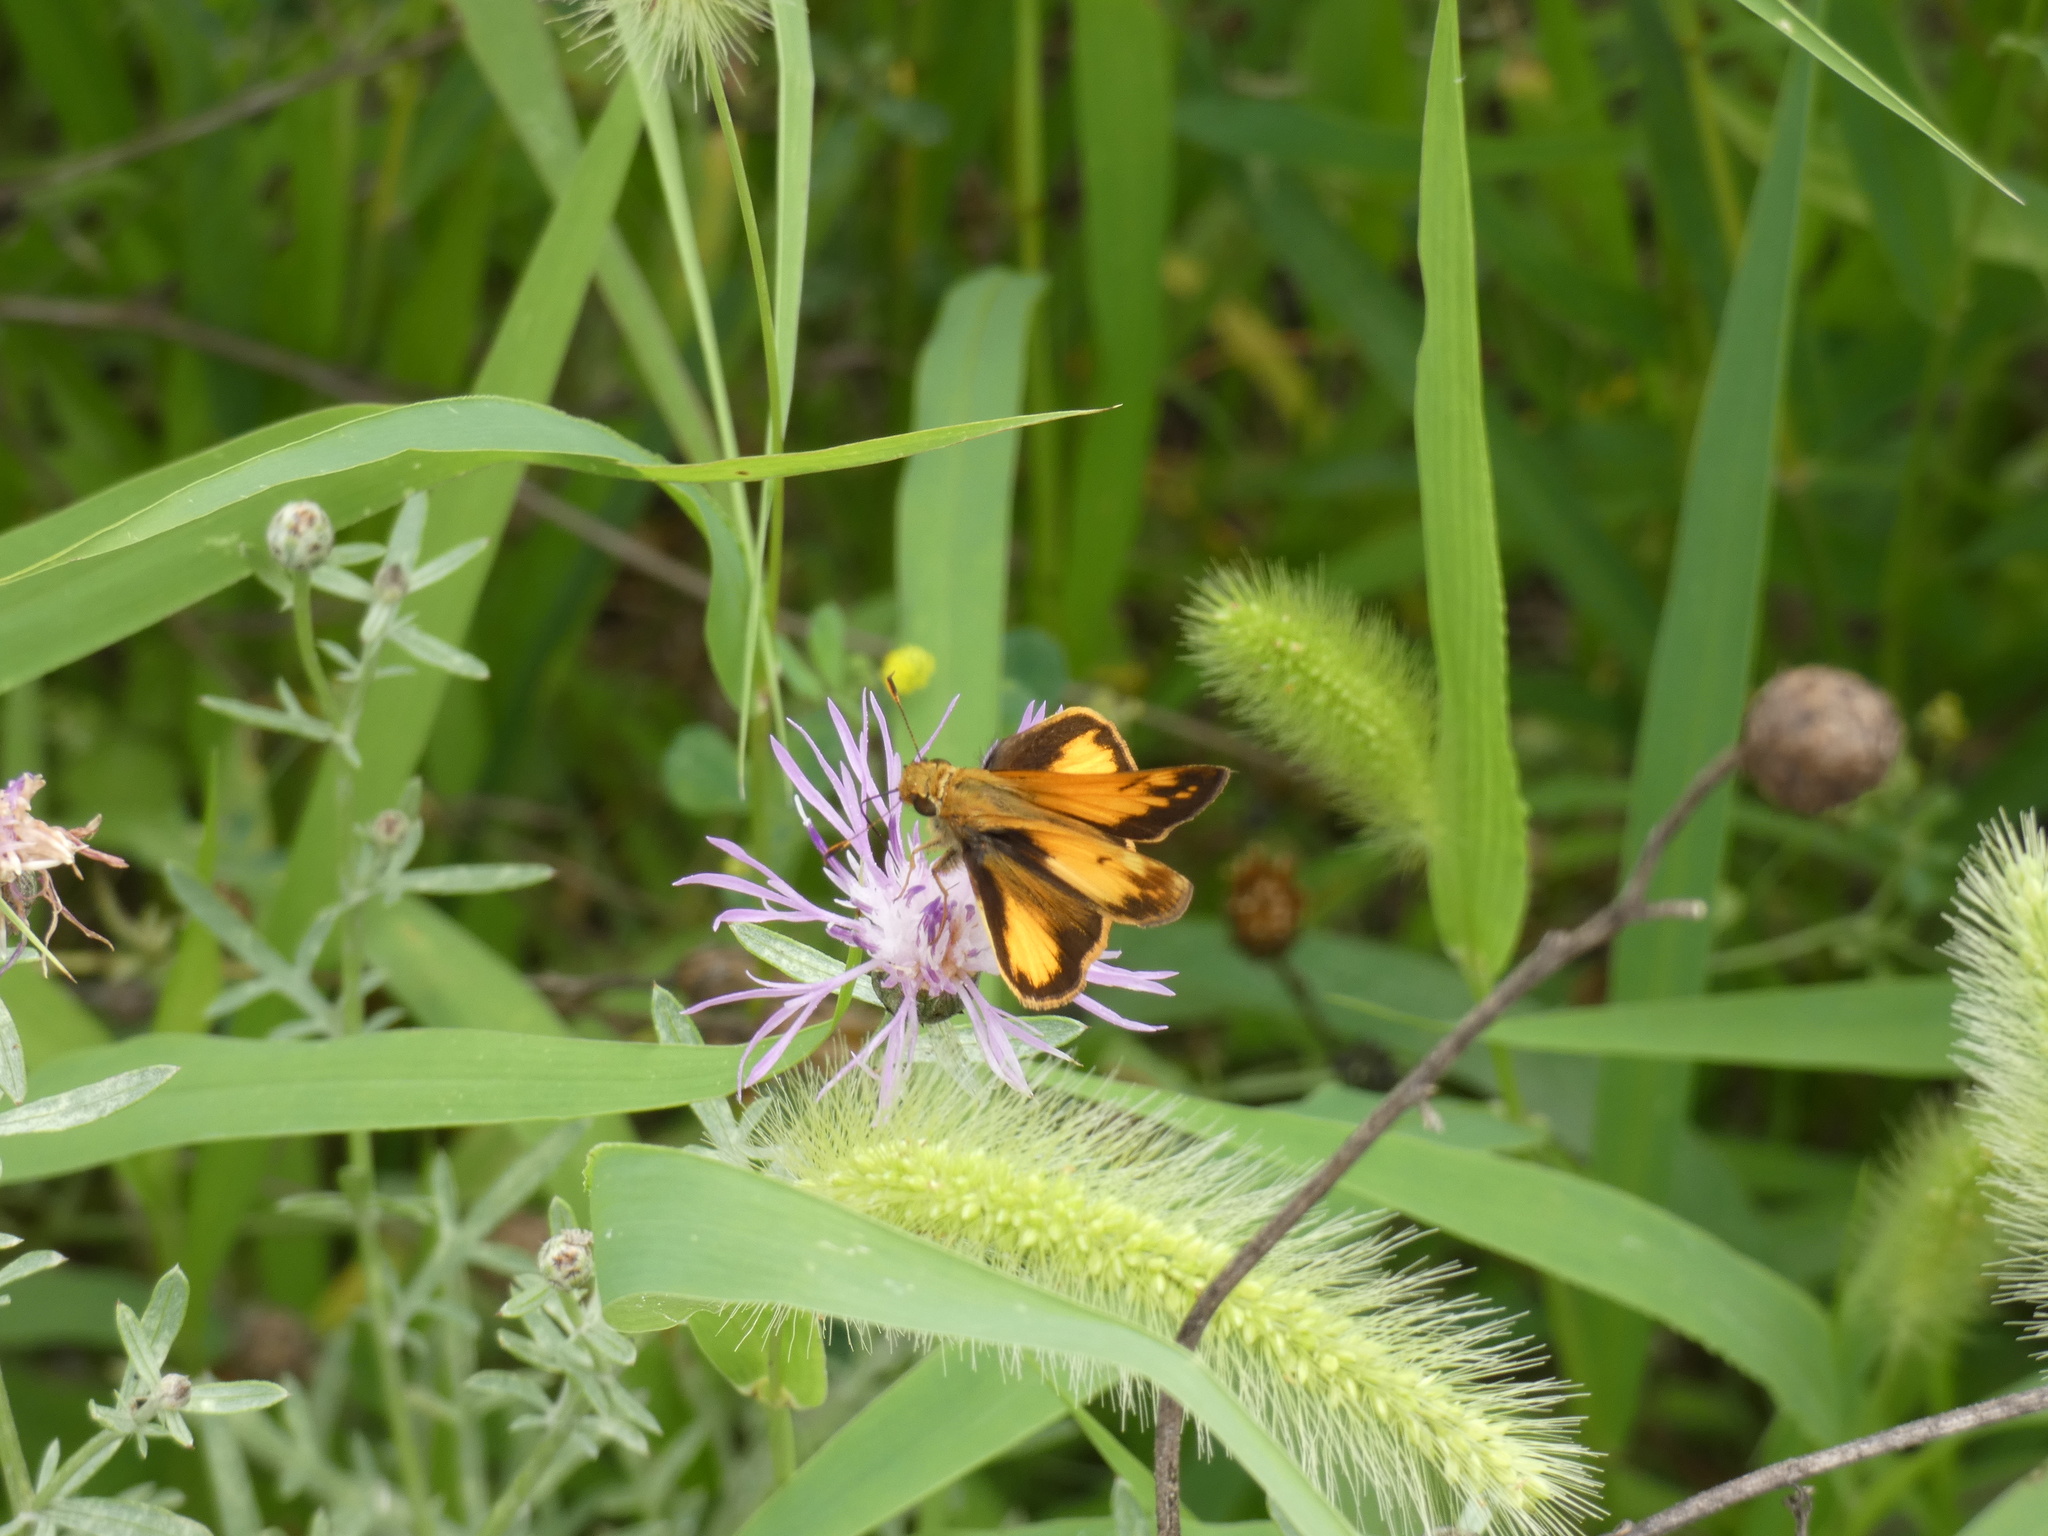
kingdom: Animalia
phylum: Arthropoda
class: Insecta
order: Lepidoptera
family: Hesperiidae
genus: Lon
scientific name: Lon zabulon
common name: Zabulon skipper
